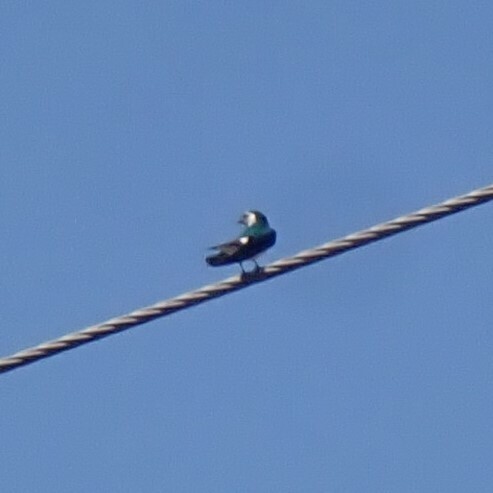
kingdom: Animalia
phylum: Chordata
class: Aves
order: Passeriformes
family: Hirundinidae
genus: Tachycineta
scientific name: Tachycineta thalassina
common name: Violet-green swallow
